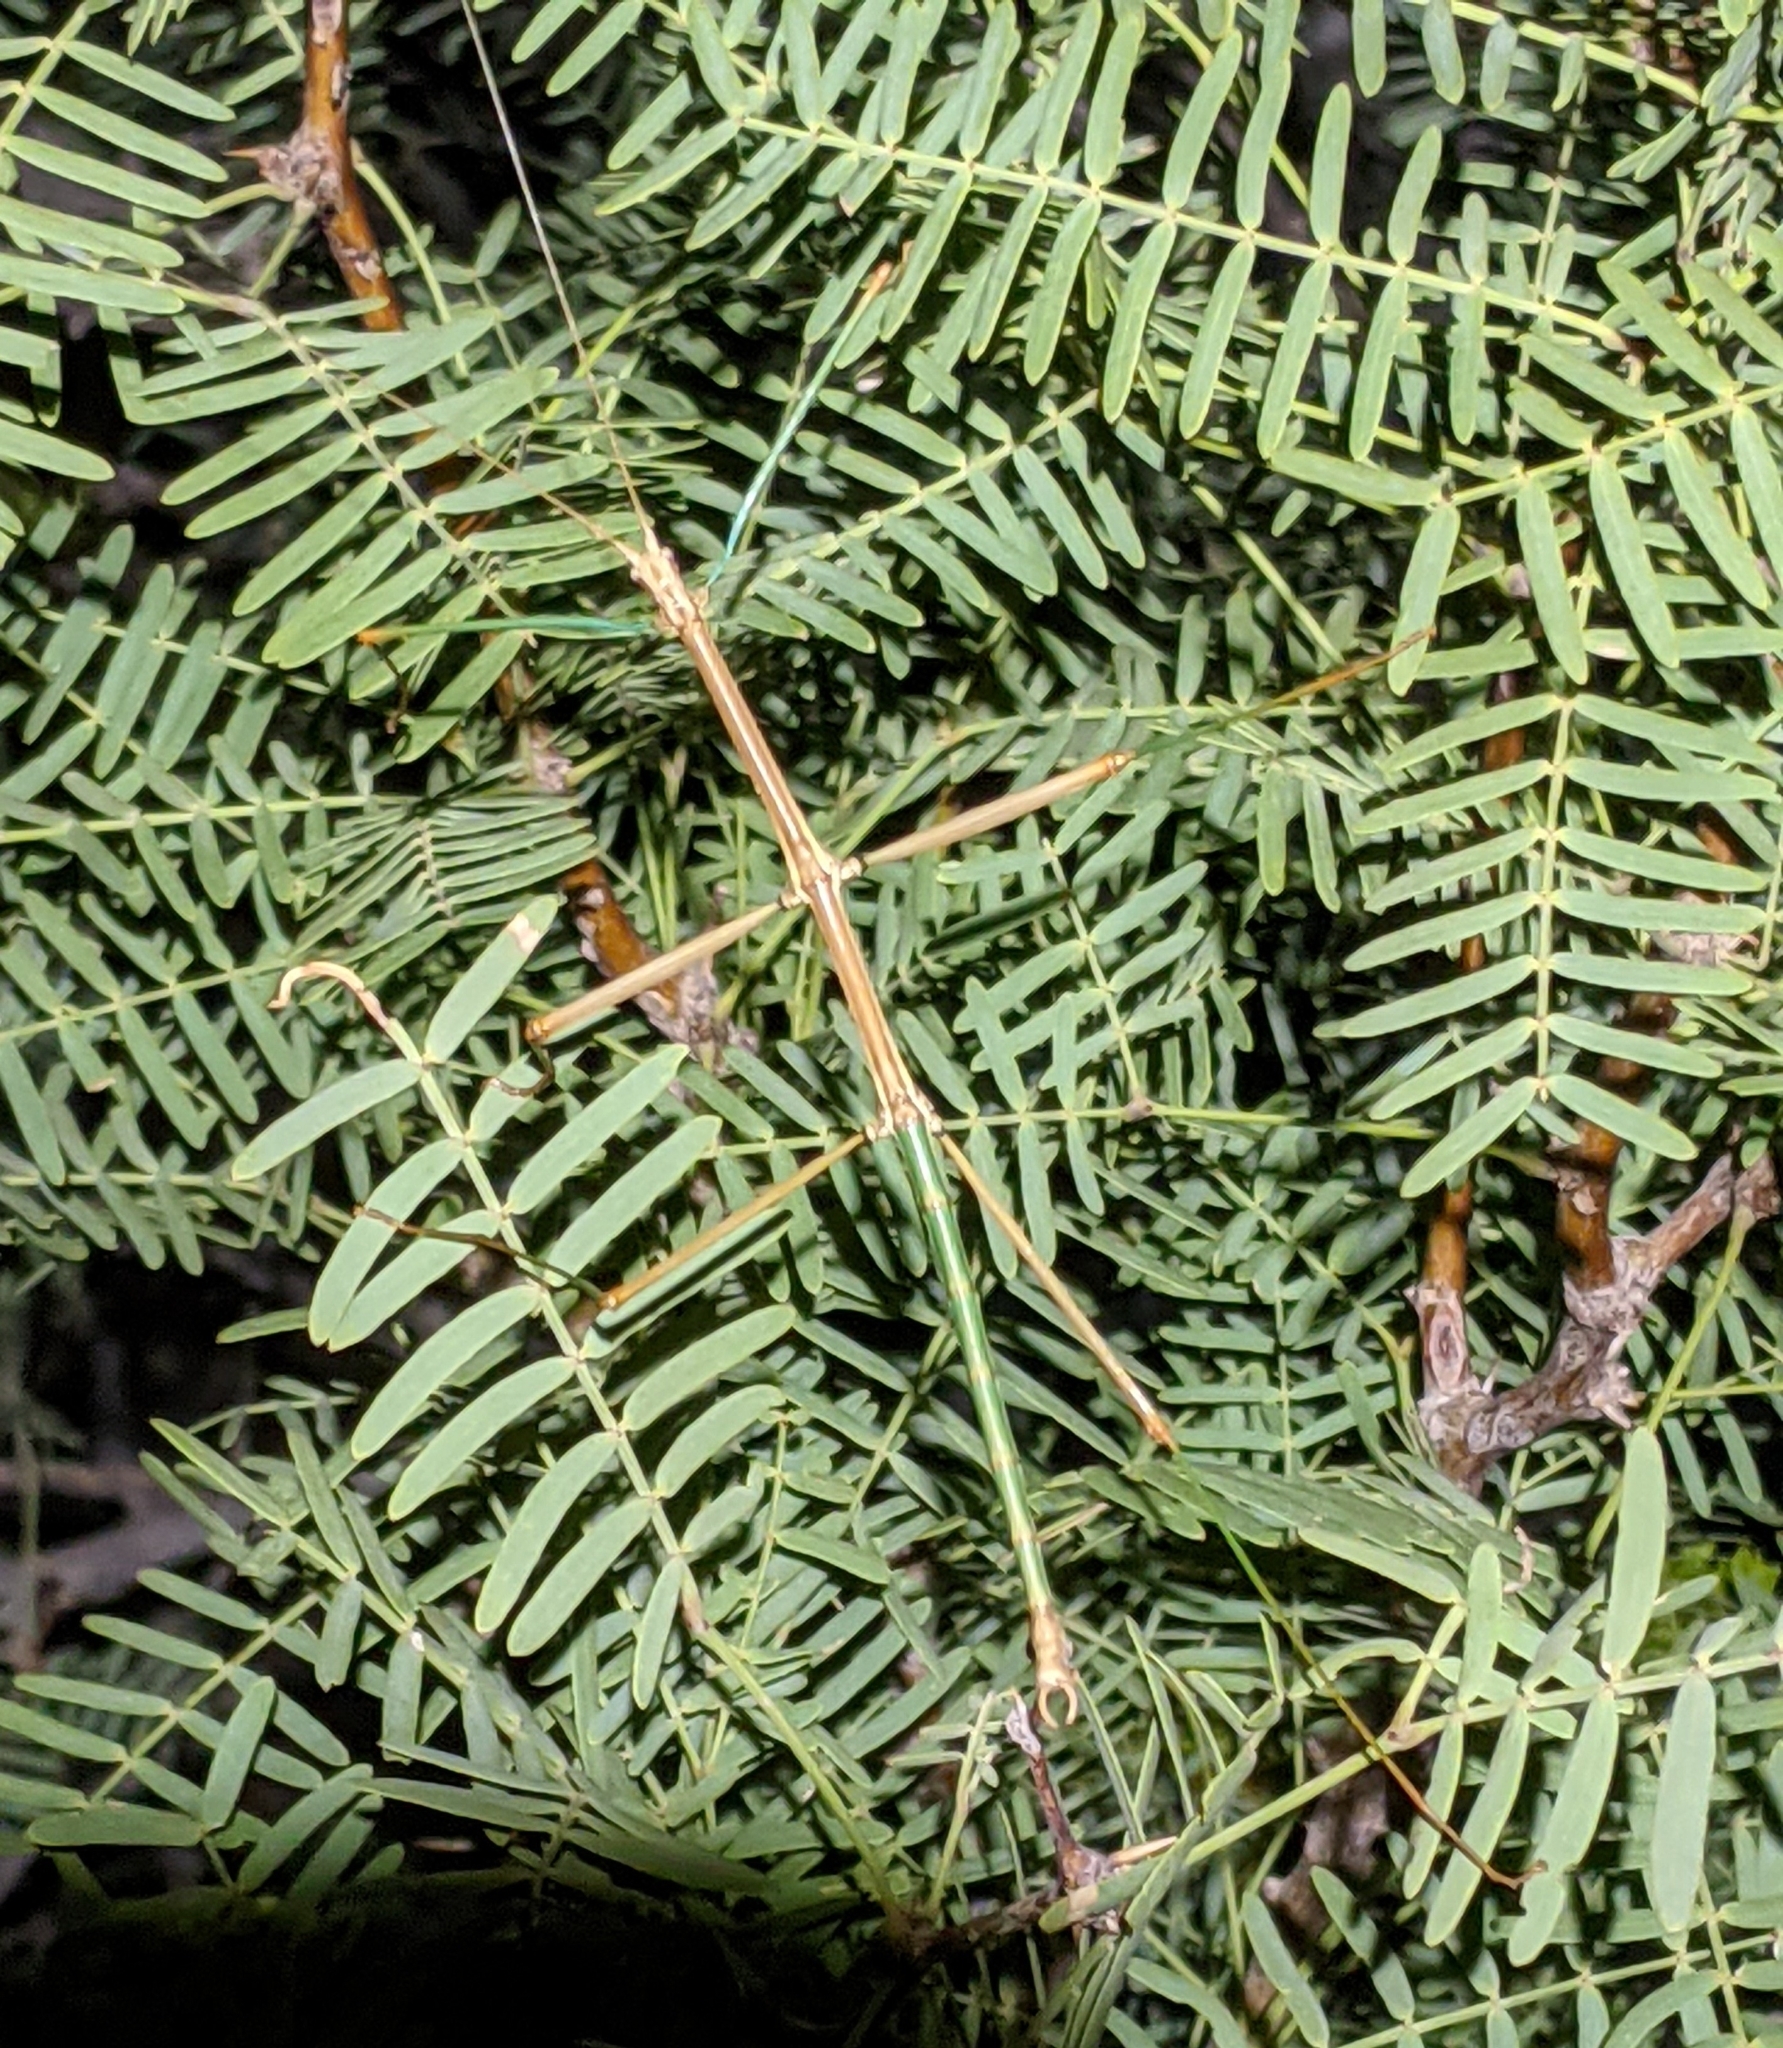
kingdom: Animalia
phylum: Arthropoda
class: Insecta
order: Phasmida
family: Diapheromeridae
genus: Diapheromera
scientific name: Diapheromera velii
